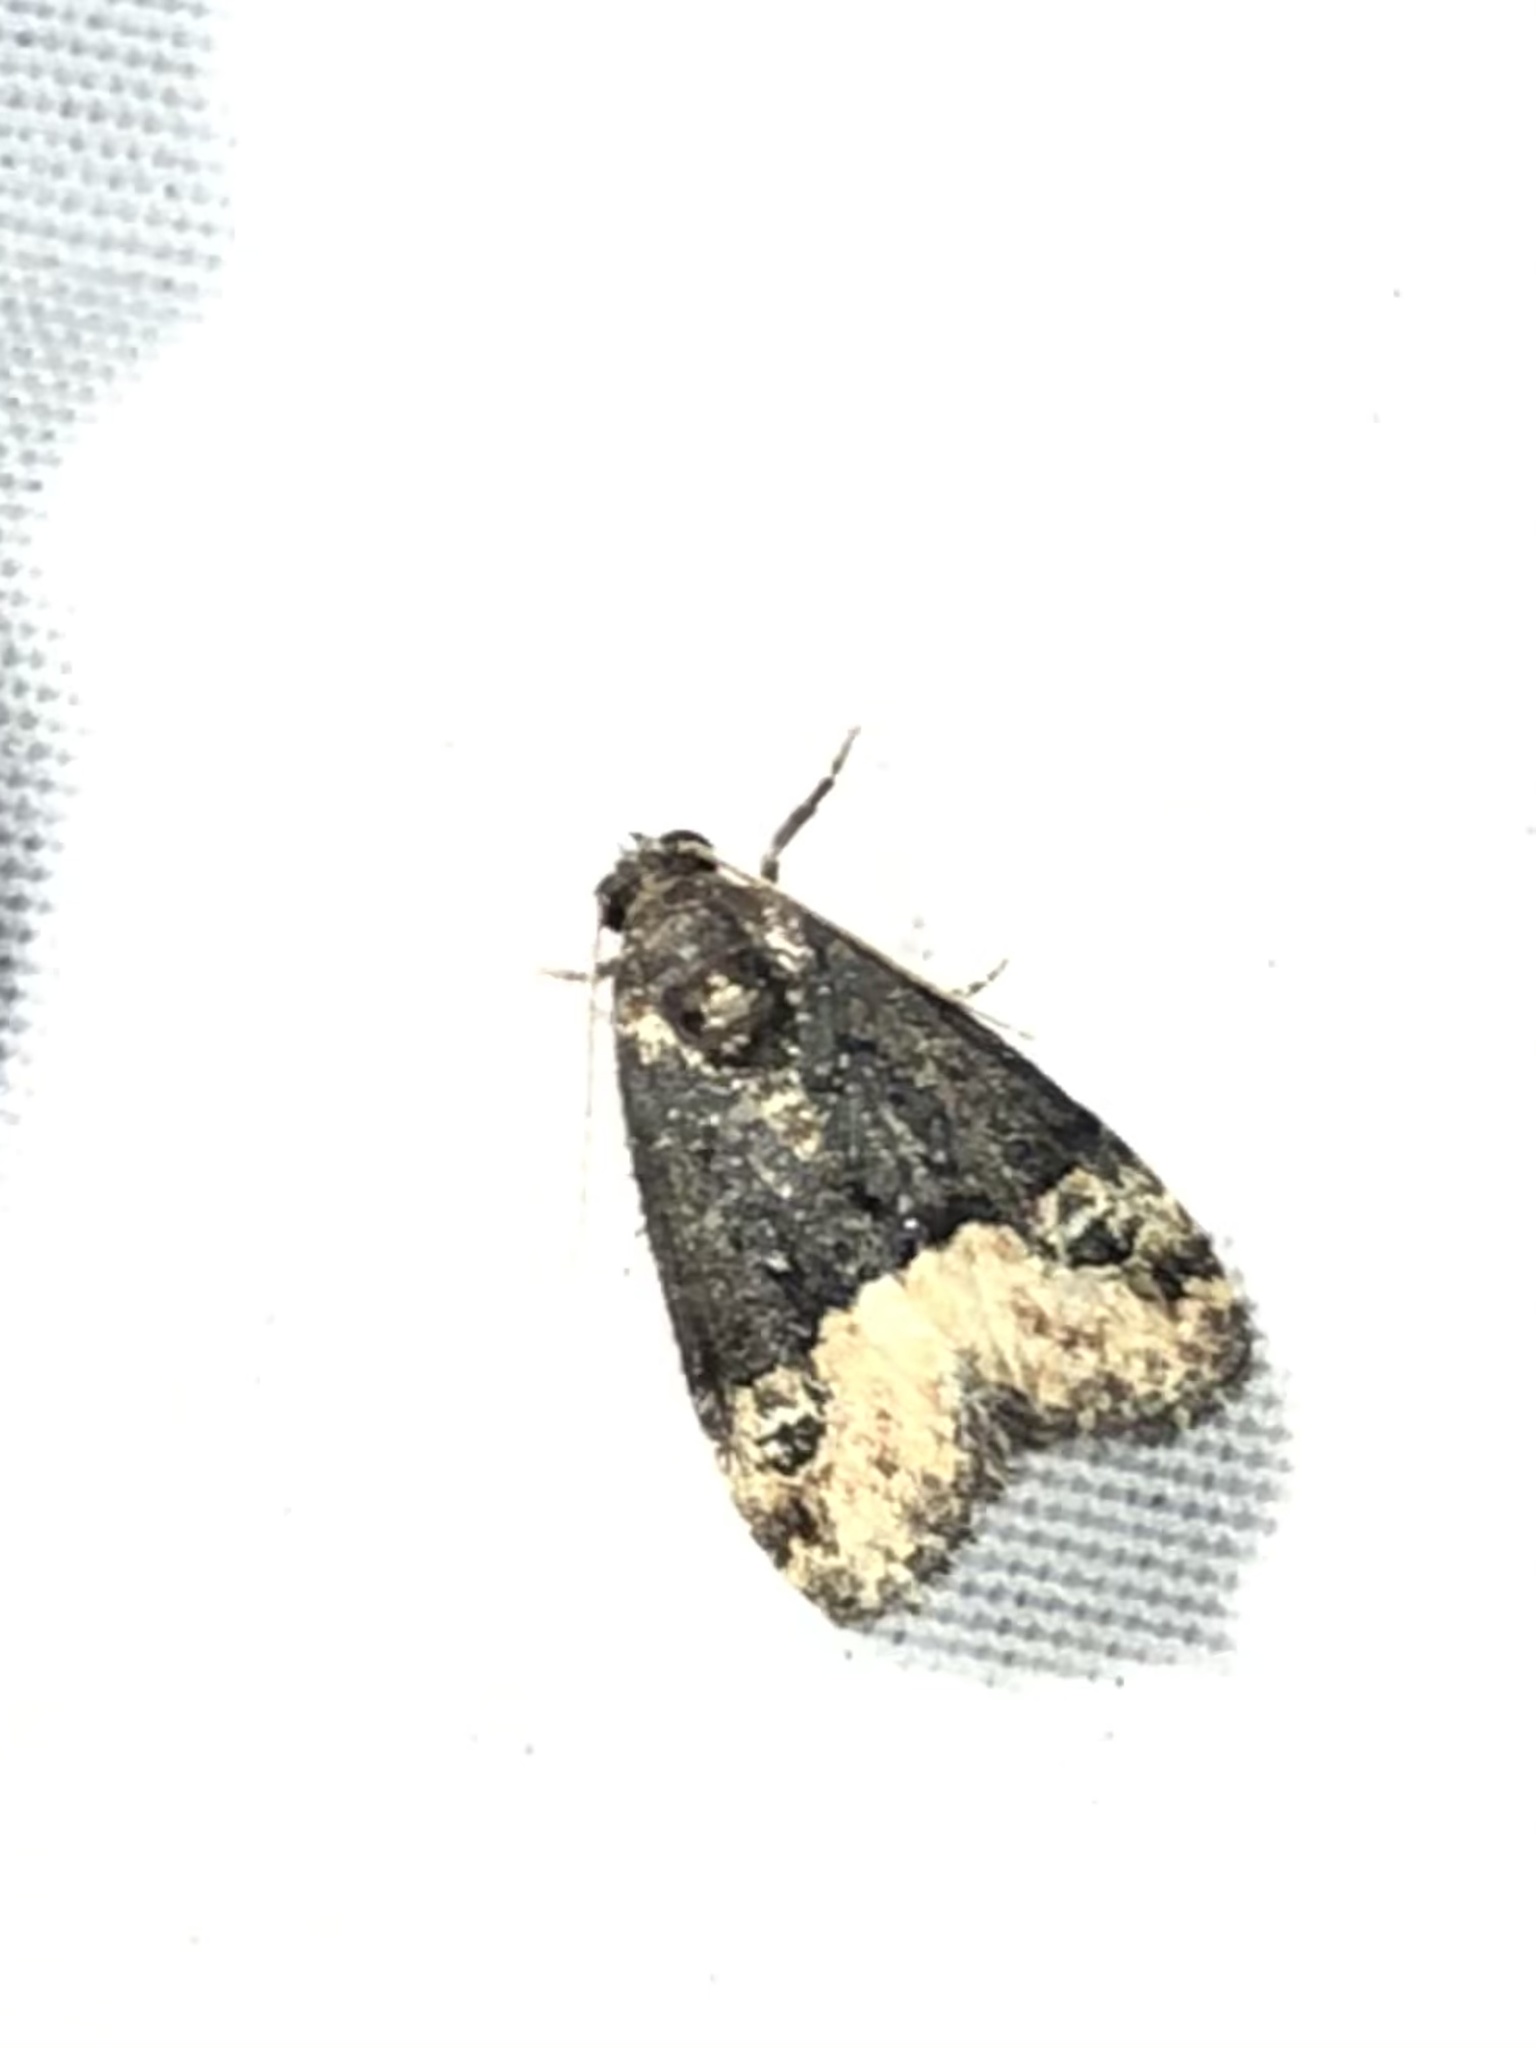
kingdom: Animalia
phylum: Arthropoda
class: Insecta
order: Lepidoptera
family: Noctuidae
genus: Ozarba
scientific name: Ozarba propera
